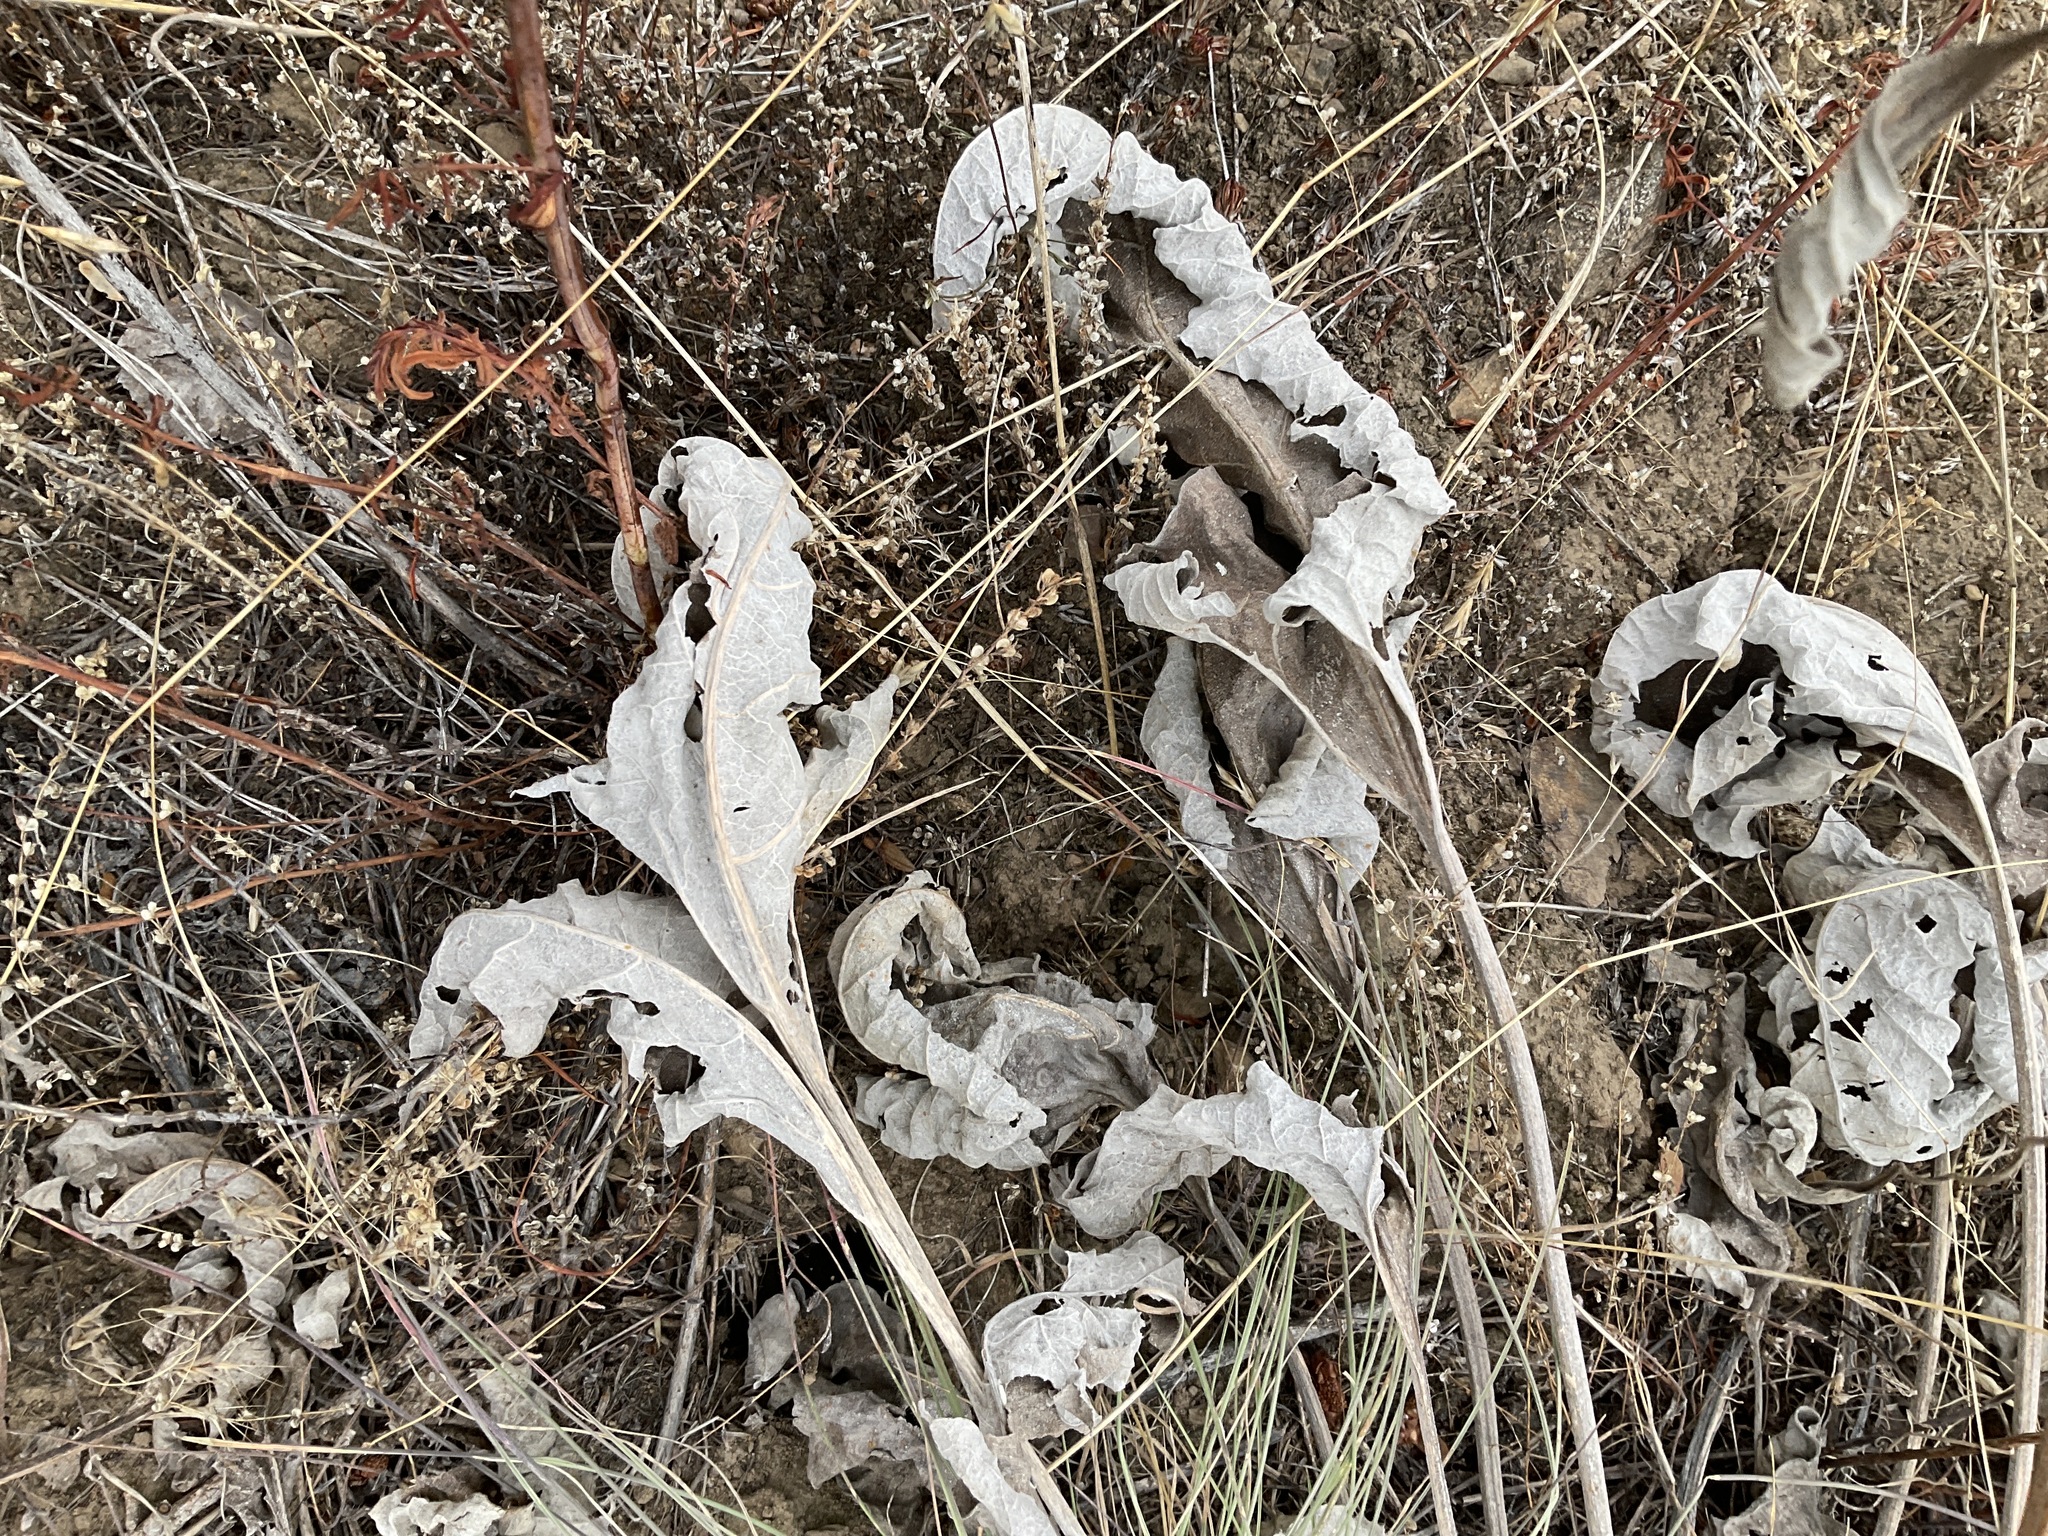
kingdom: Plantae
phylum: Tracheophyta
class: Magnoliopsida
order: Asterales
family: Asteraceae
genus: Wyethia
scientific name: Wyethia sagittata
